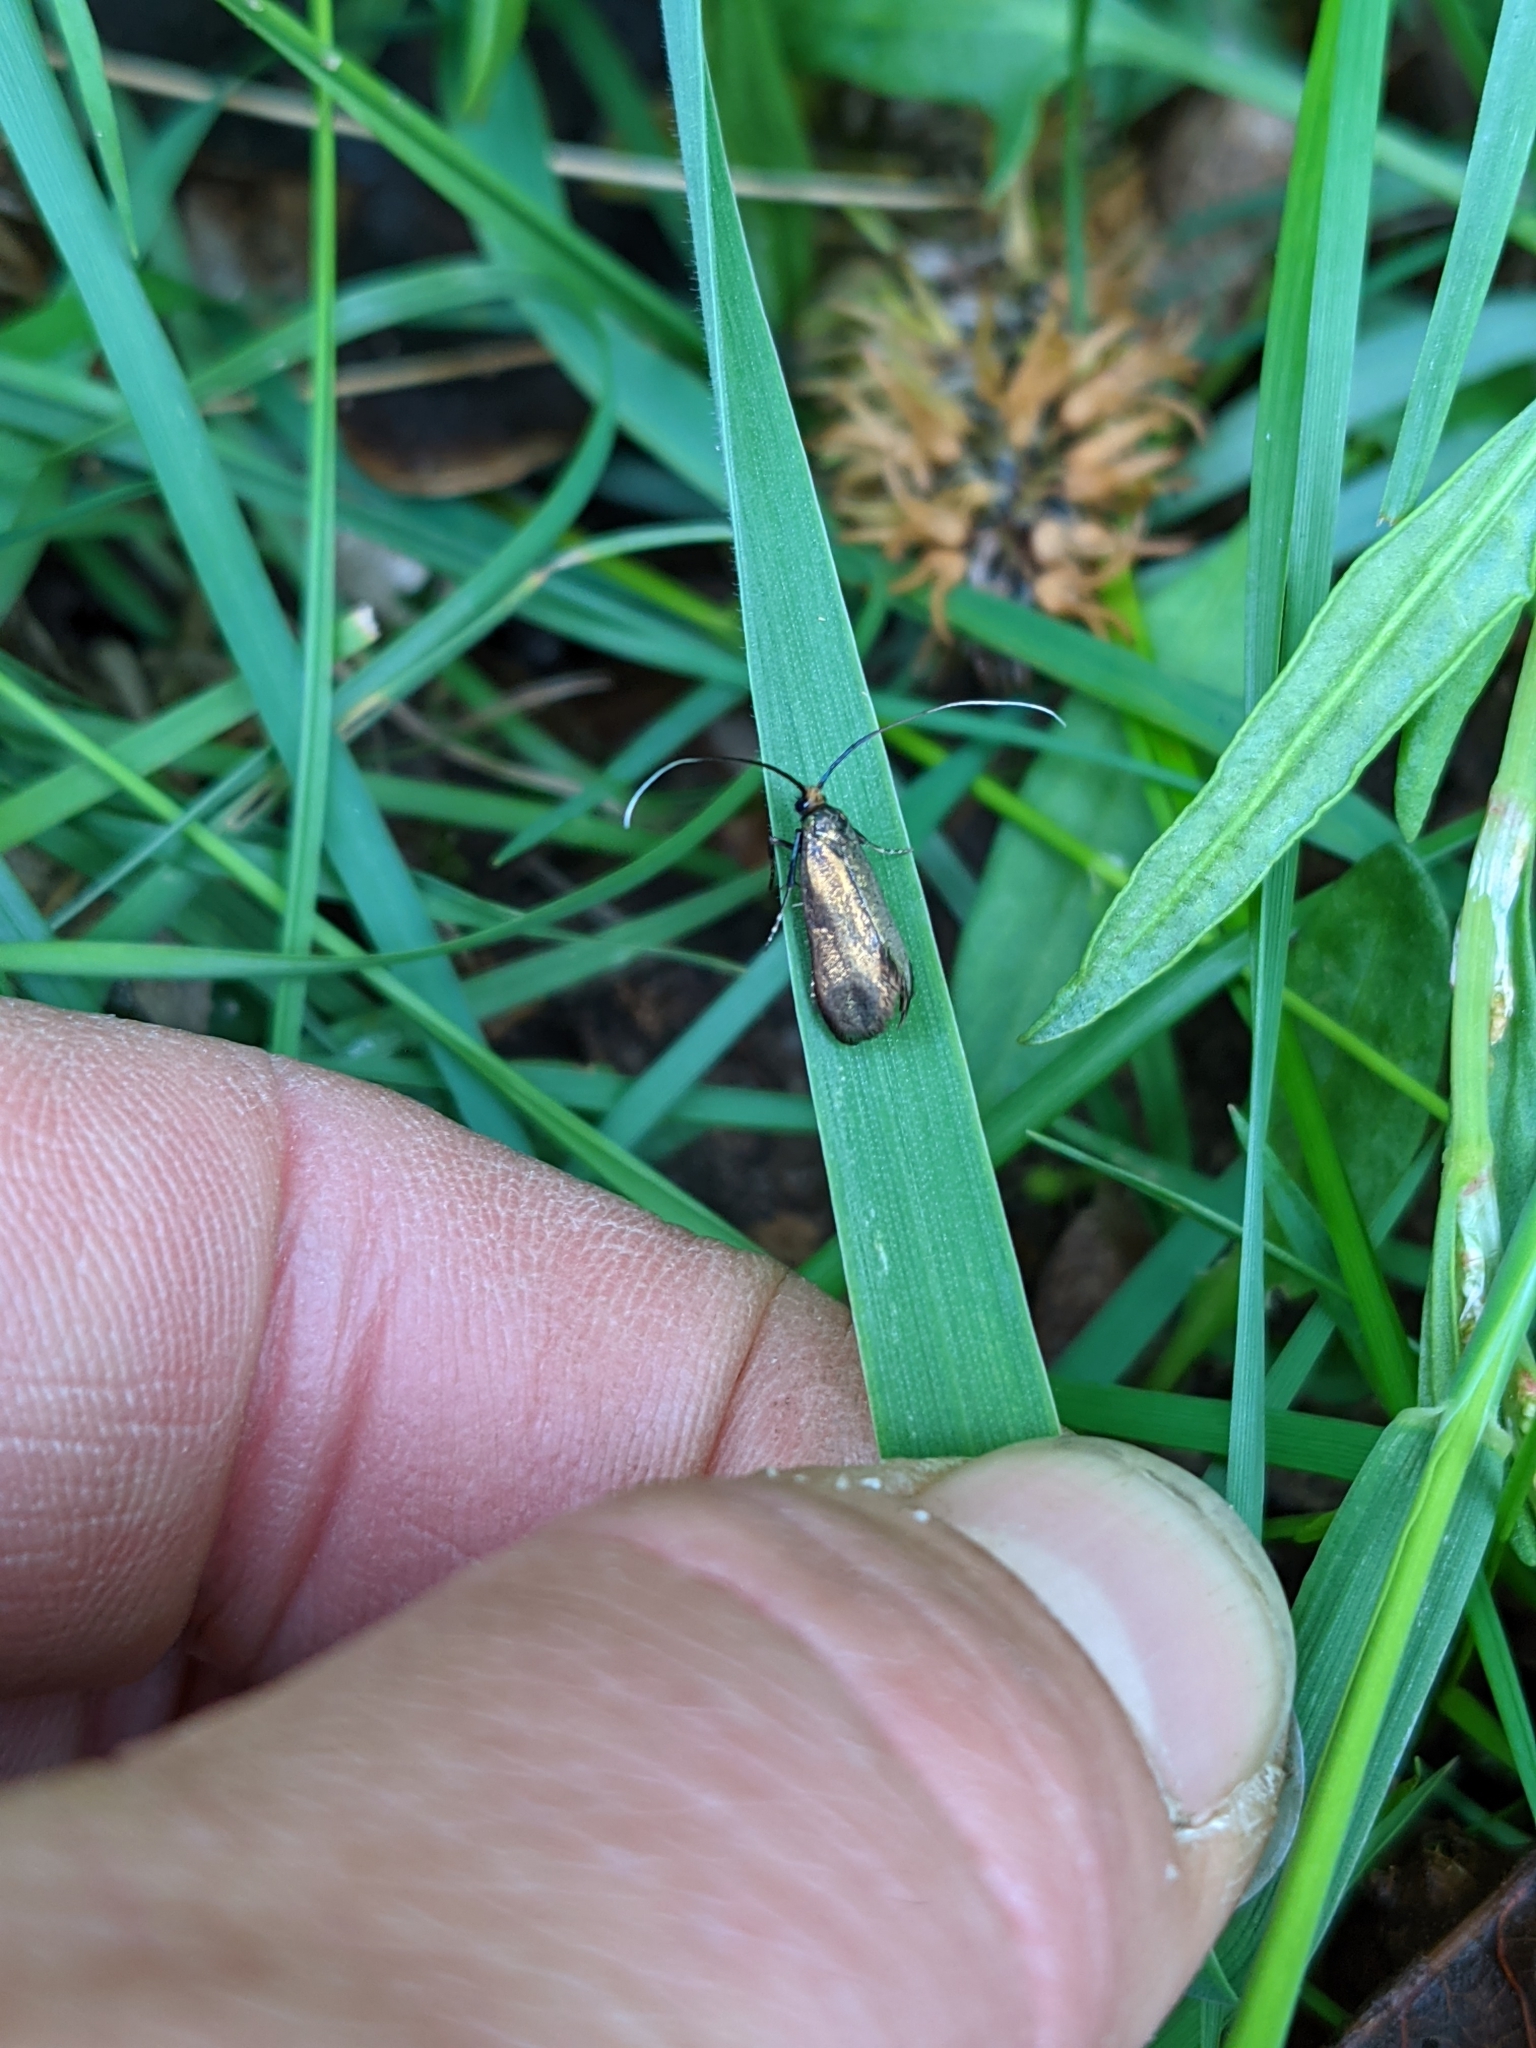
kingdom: Animalia
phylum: Arthropoda
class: Insecta
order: Lepidoptera
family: Adelidae
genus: Adela
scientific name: Adela viridella
